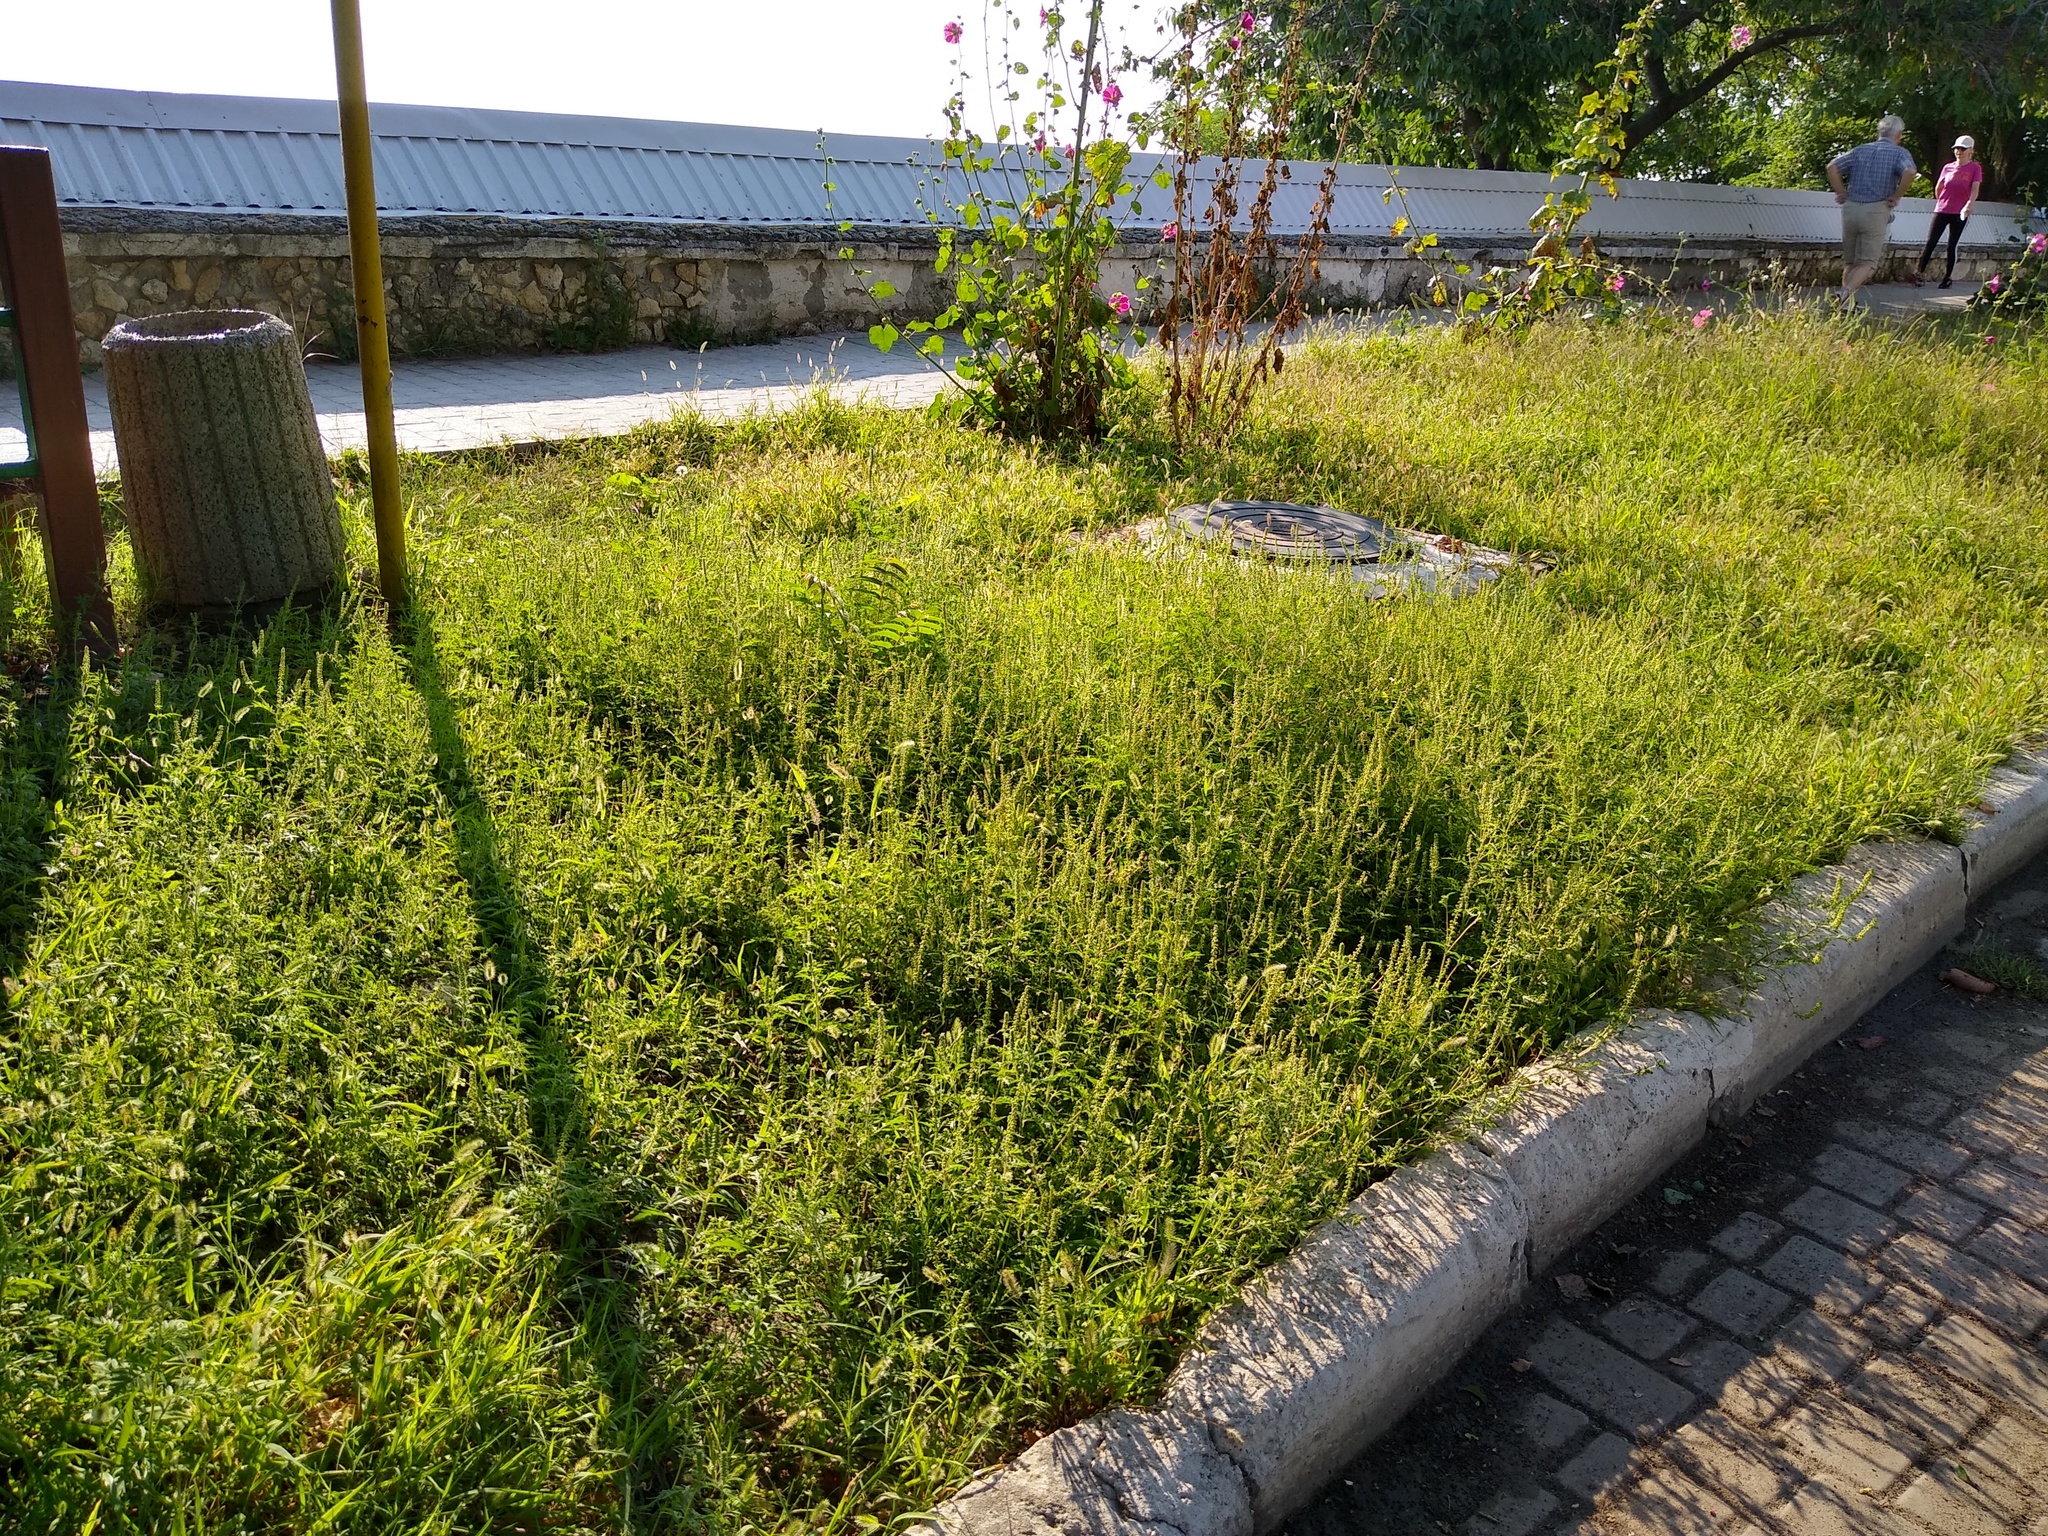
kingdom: Plantae
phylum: Tracheophyta
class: Magnoliopsida
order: Asterales
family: Asteraceae
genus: Ambrosia
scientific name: Ambrosia artemisiifolia
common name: Annual ragweed
